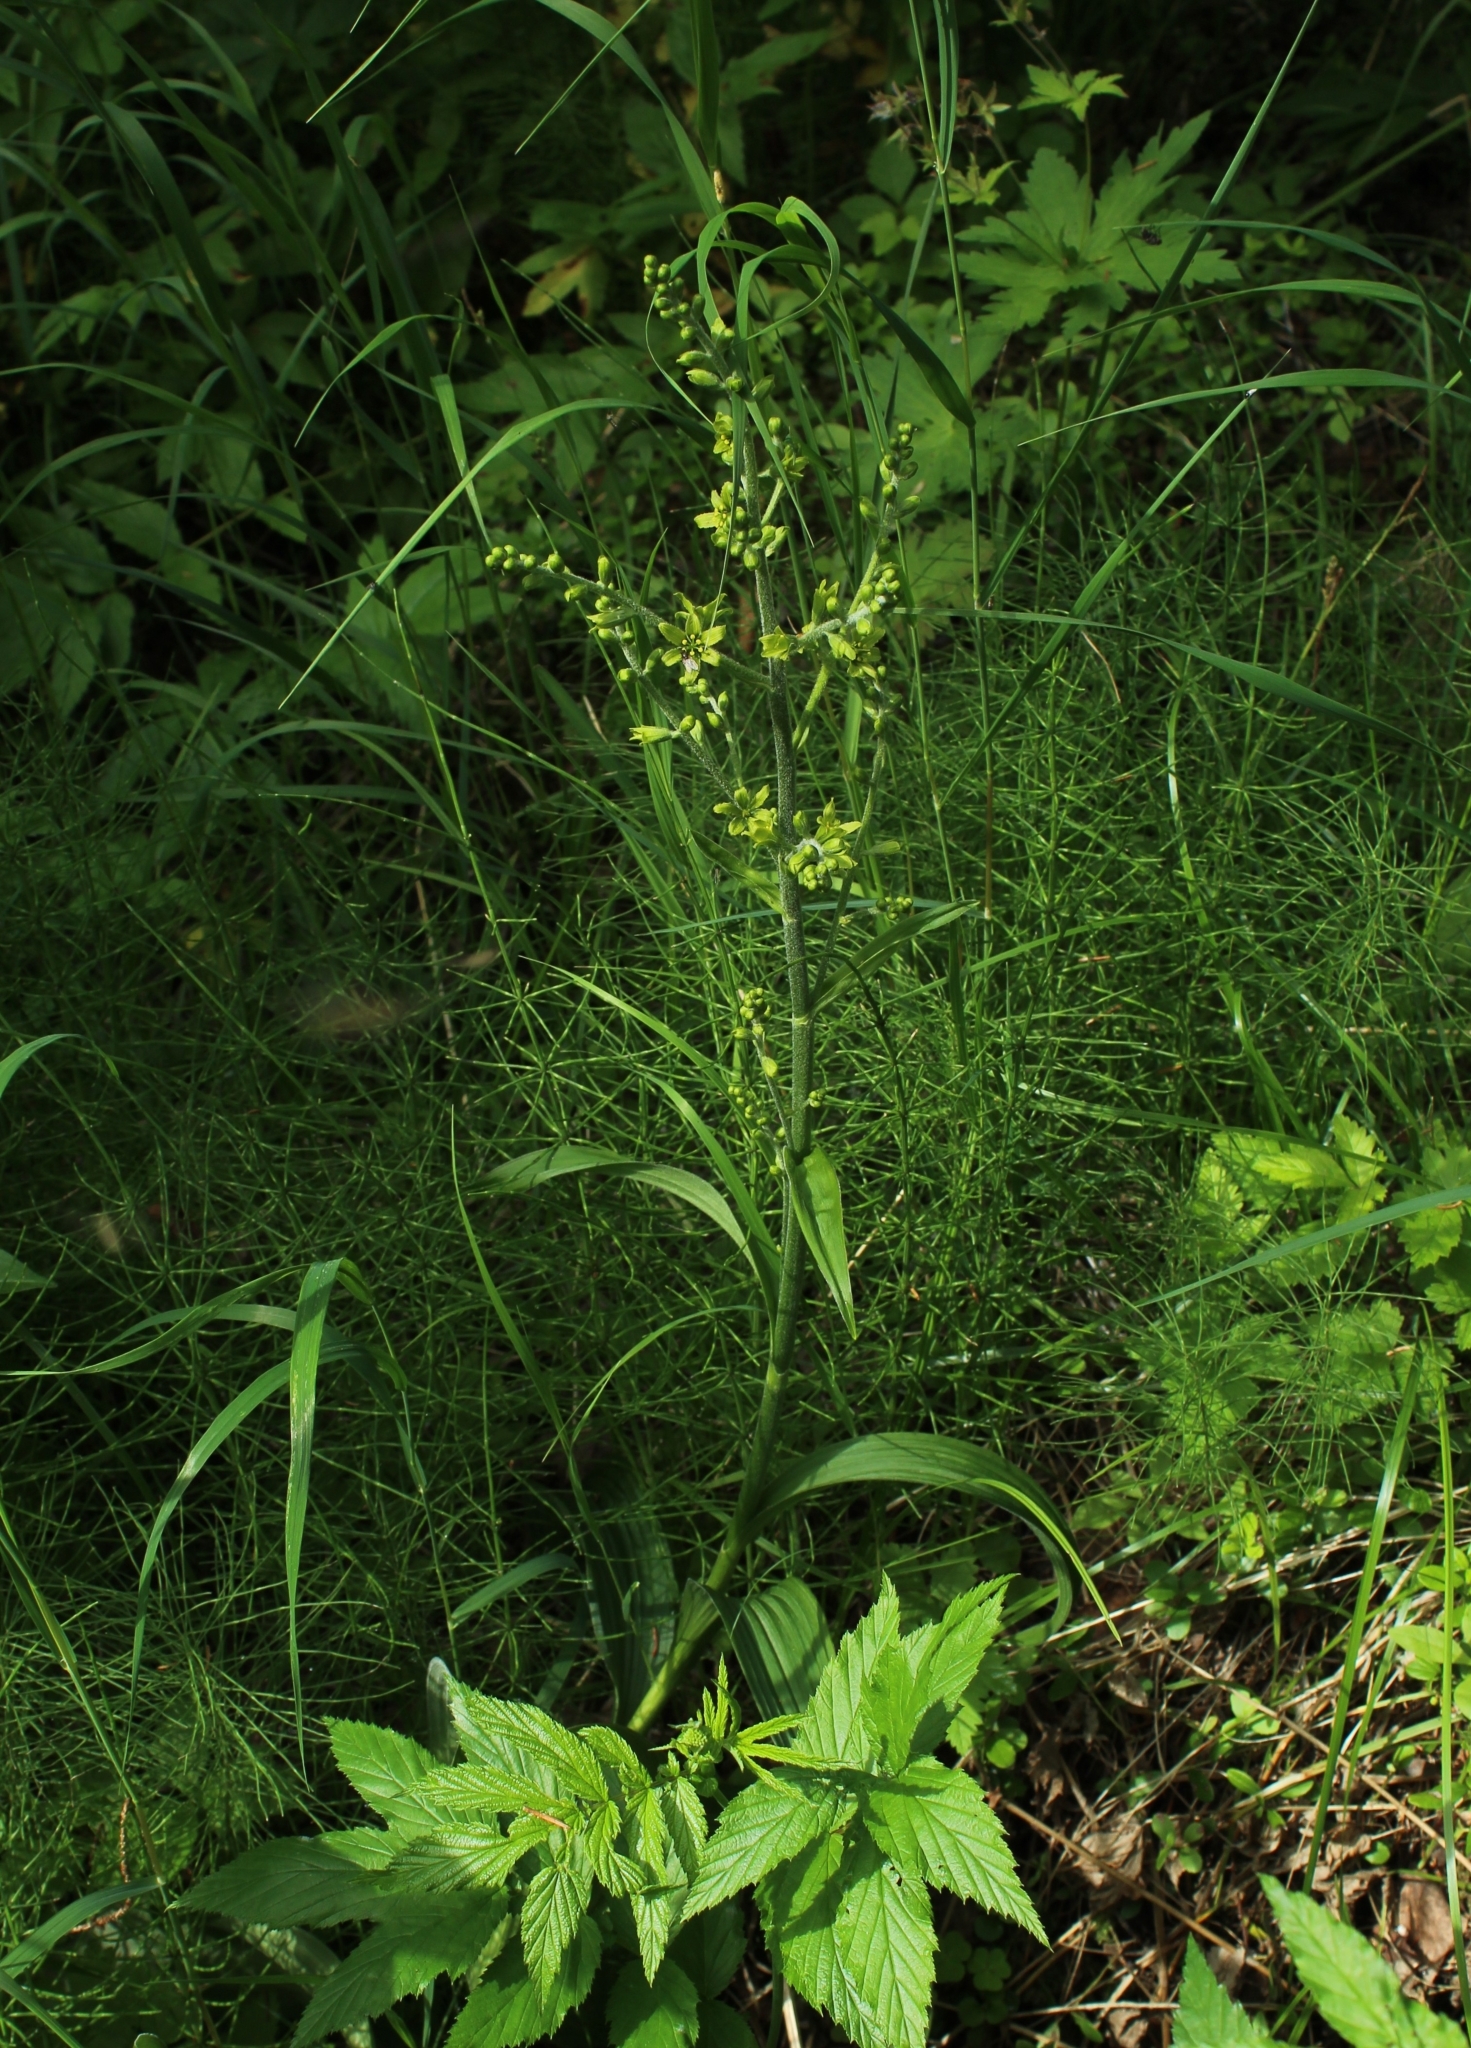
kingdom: Plantae
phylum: Tracheophyta
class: Liliopsida
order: Liliales
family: Melanthiaceae
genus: Veratrum
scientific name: Veratrum lobelianum
